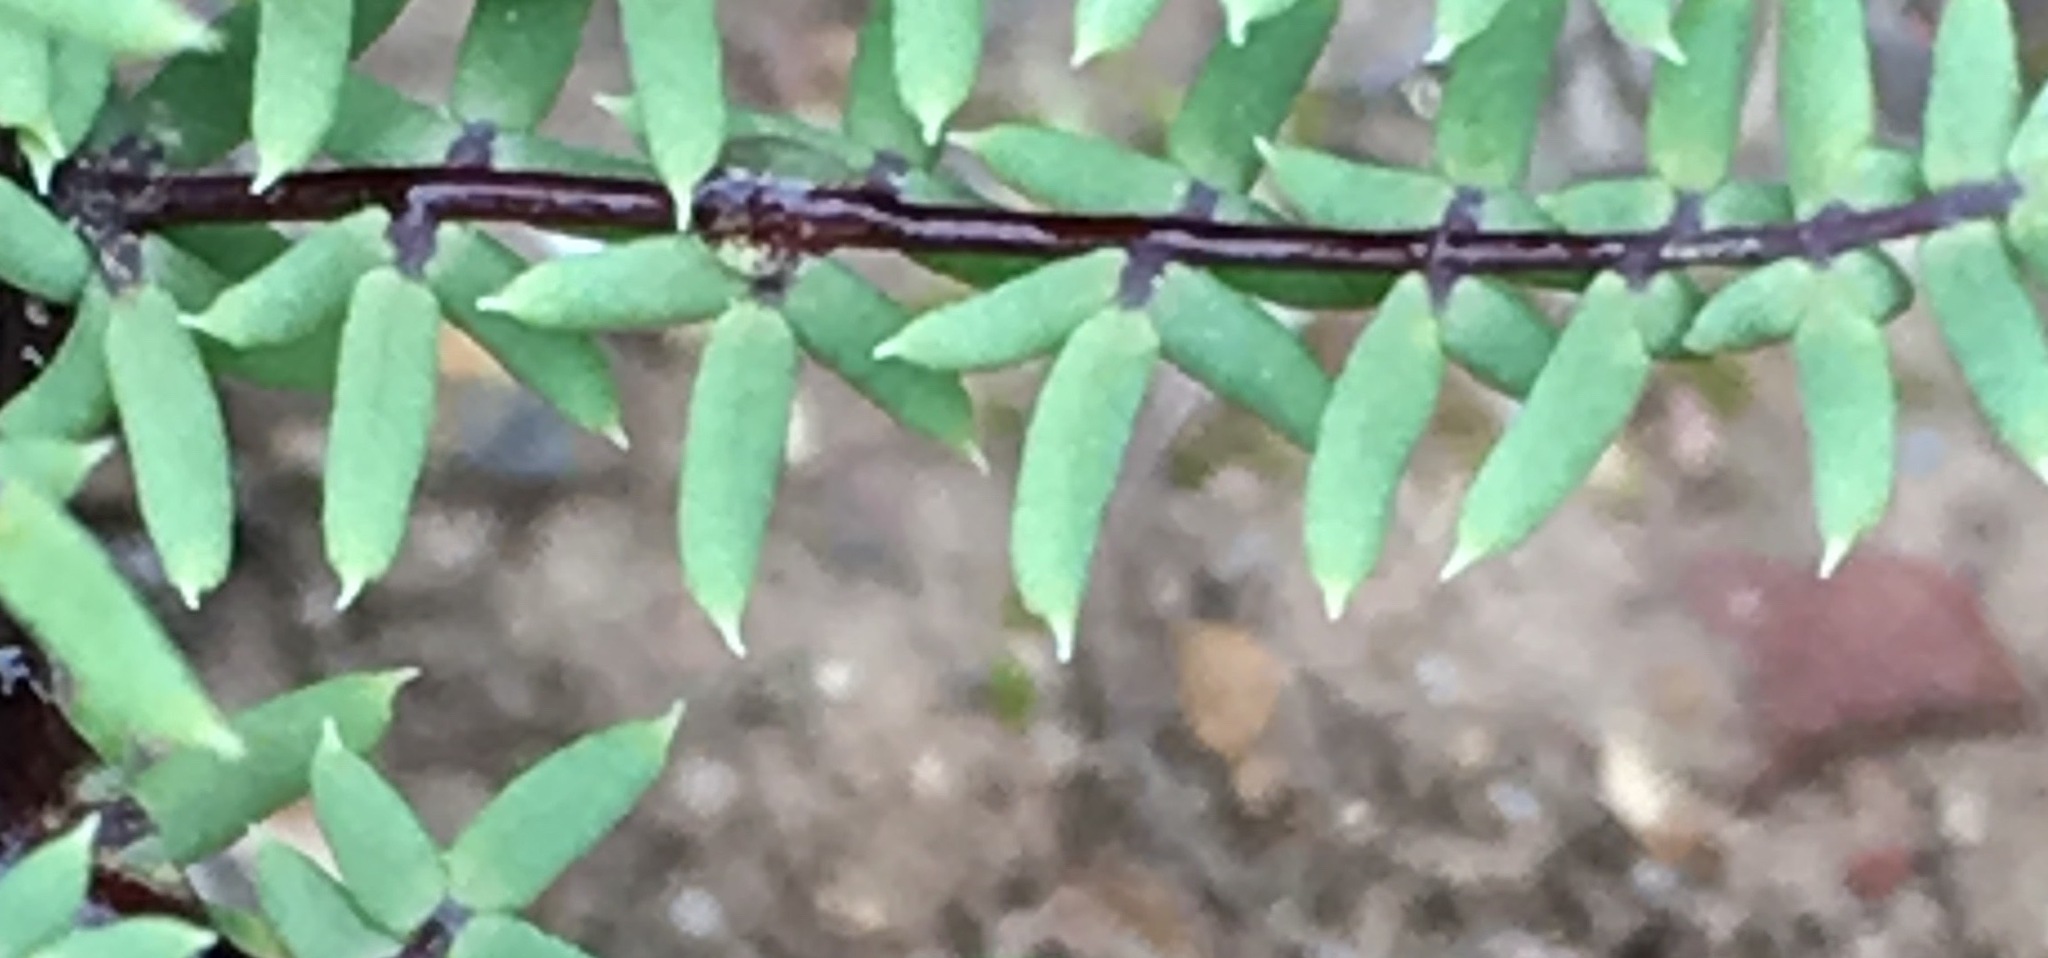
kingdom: Plantae
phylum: Tracheophyta
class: Polypodiopsida
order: Polypodiales
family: Pteridaceae
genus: Pellaea
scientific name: Pellaea mucronata
